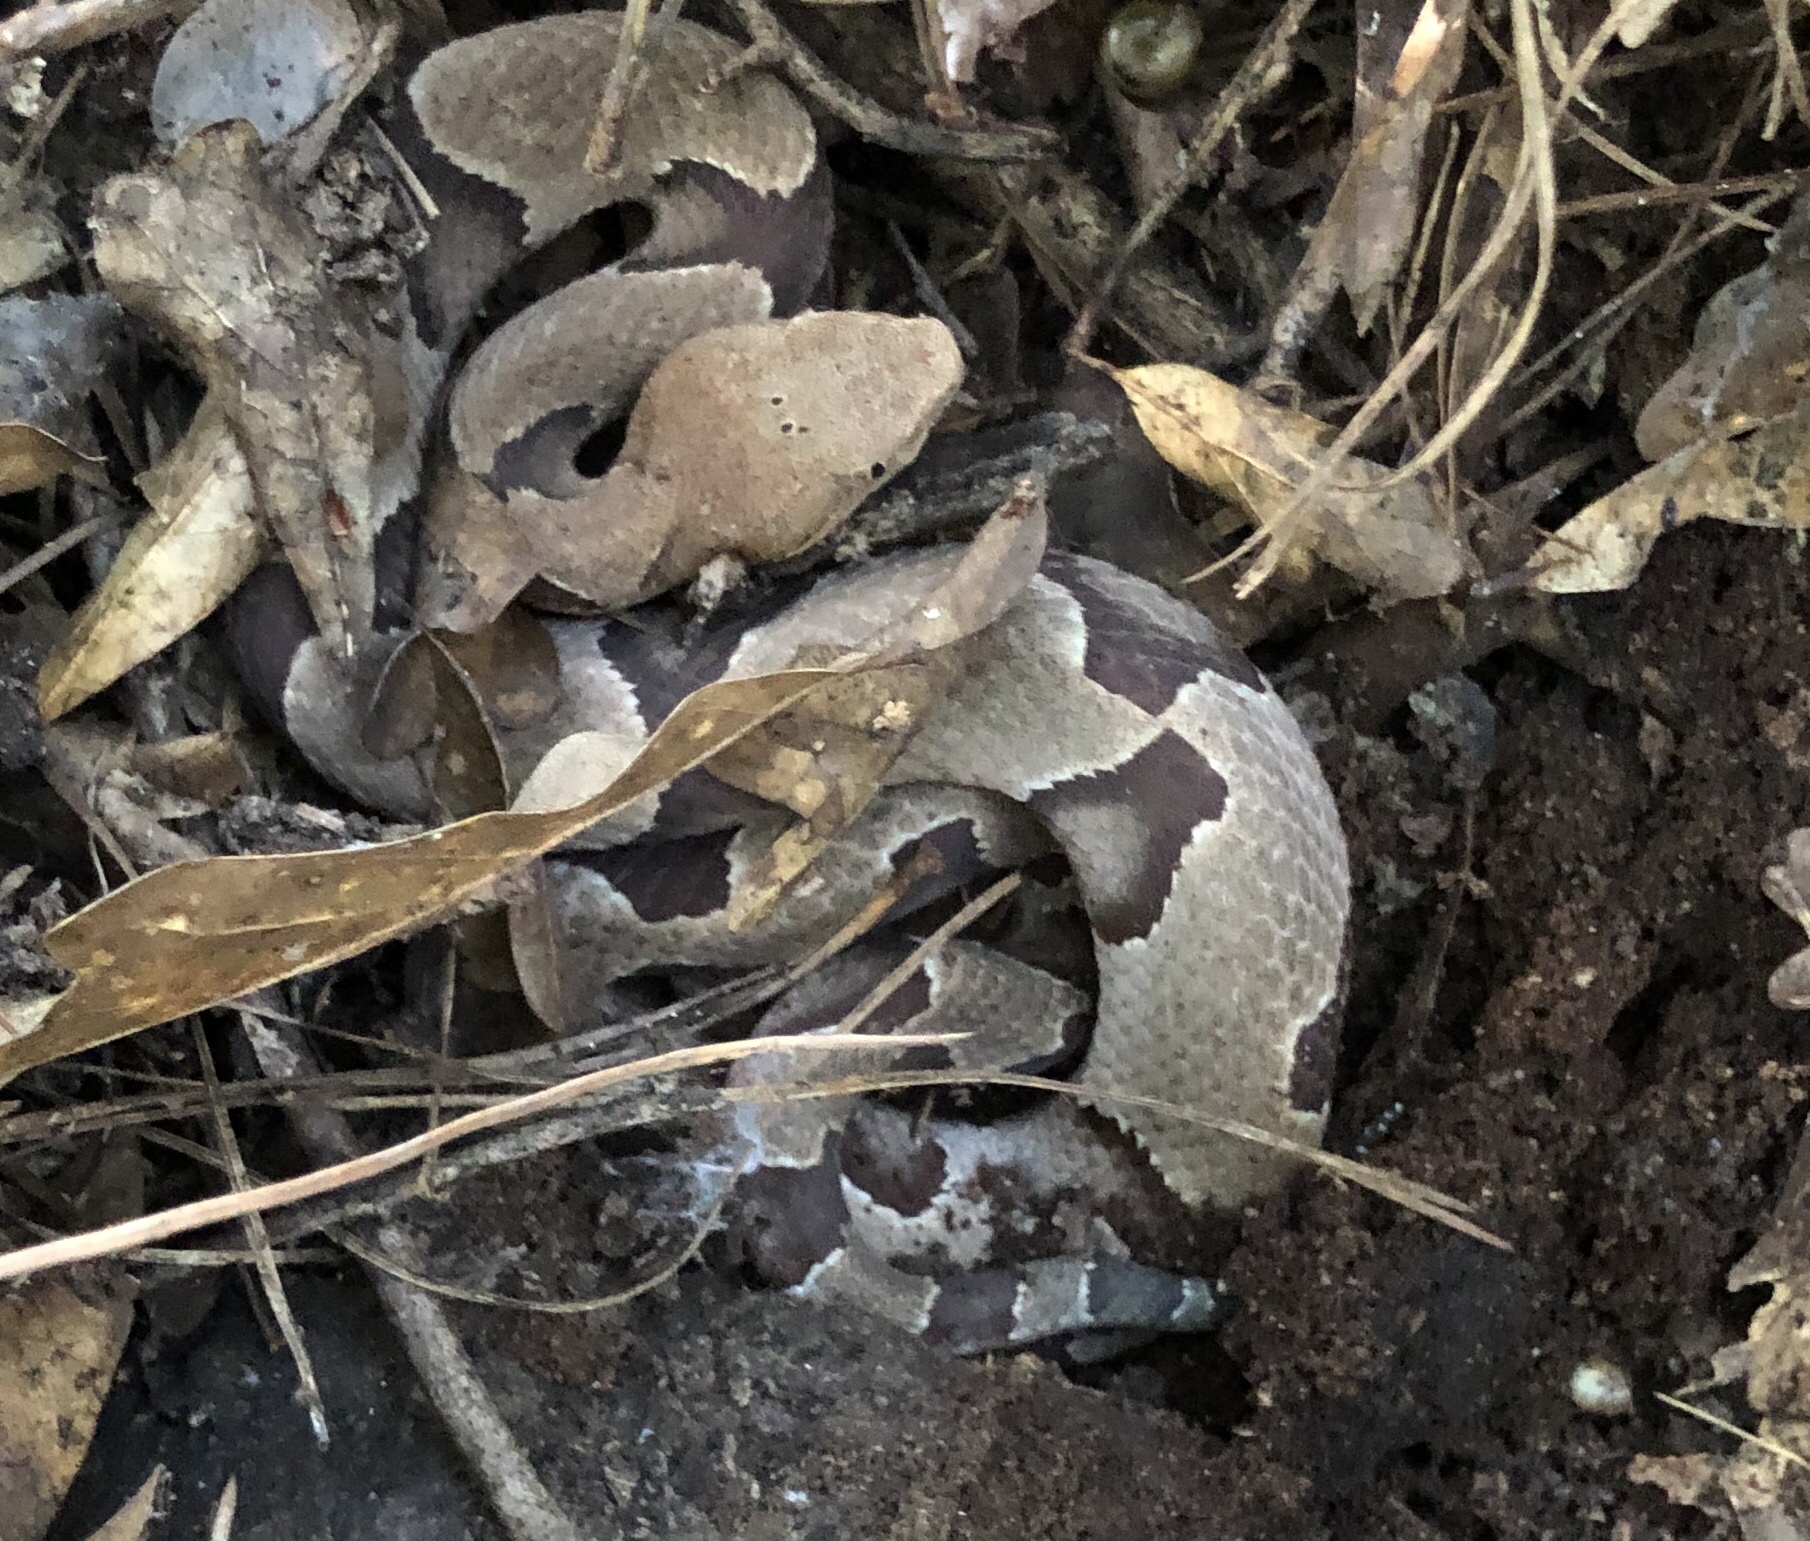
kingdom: Animalia
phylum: Chordata
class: Squamata
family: Viperidae
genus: Agkistrodon
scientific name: Agkistrodon contortrix
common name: Northern copperhead
